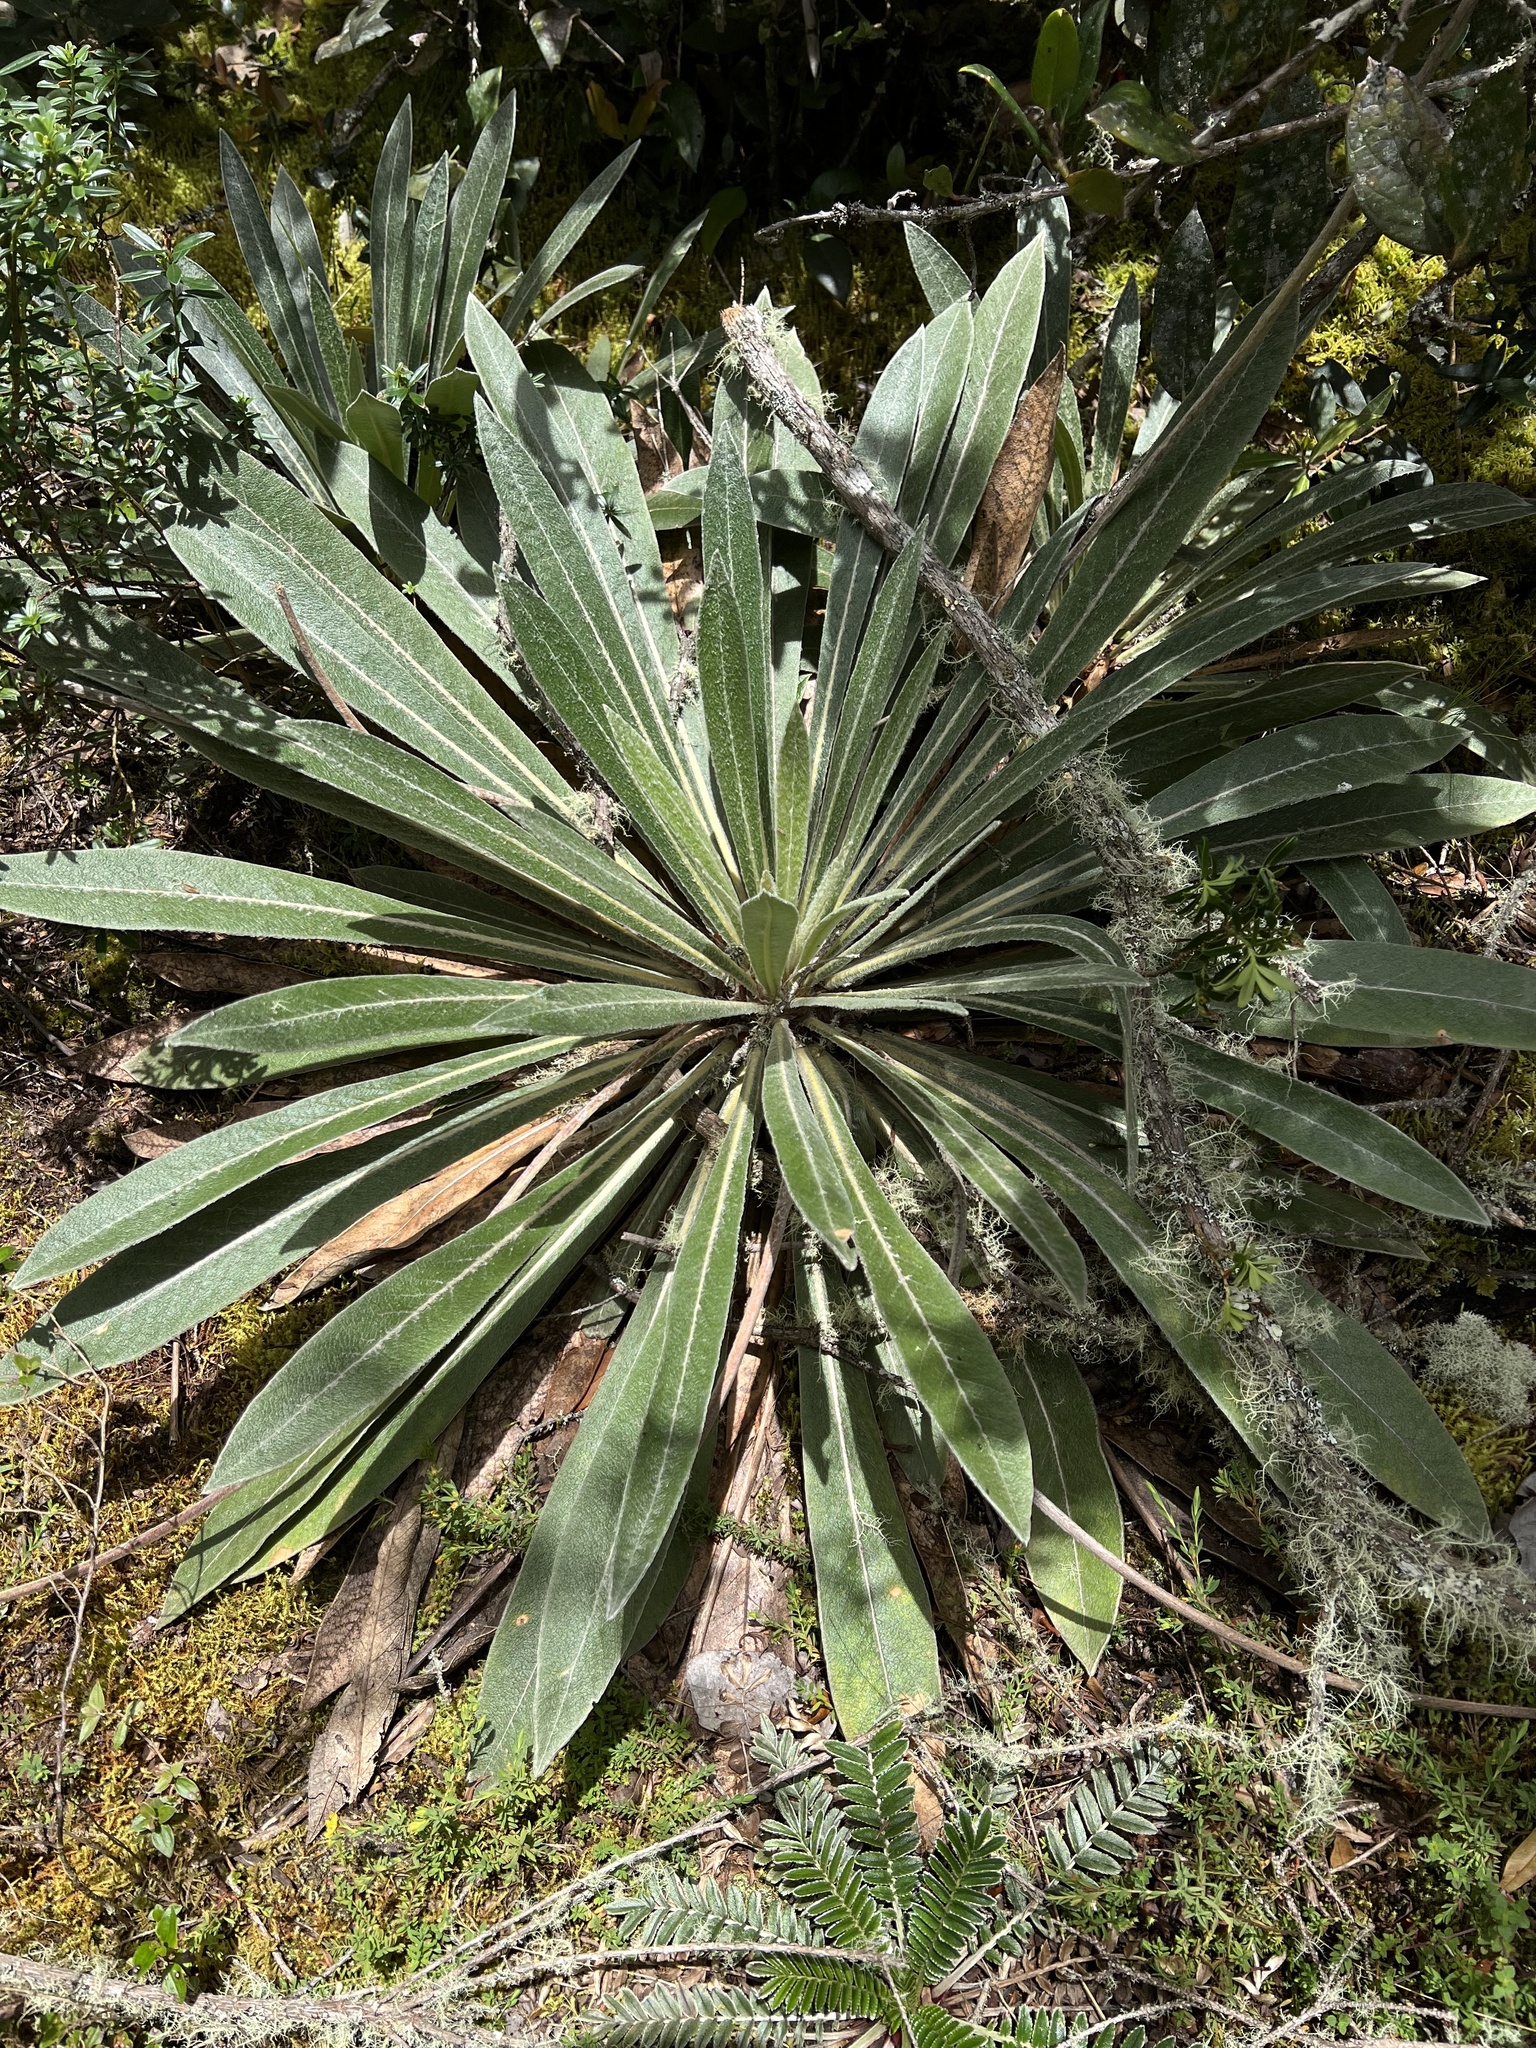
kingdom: Plantae
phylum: Tracheophyta
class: Magnoliopsida
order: Asterales
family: Asteraceae
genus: Espeletia
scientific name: Espeletia corymbosa
